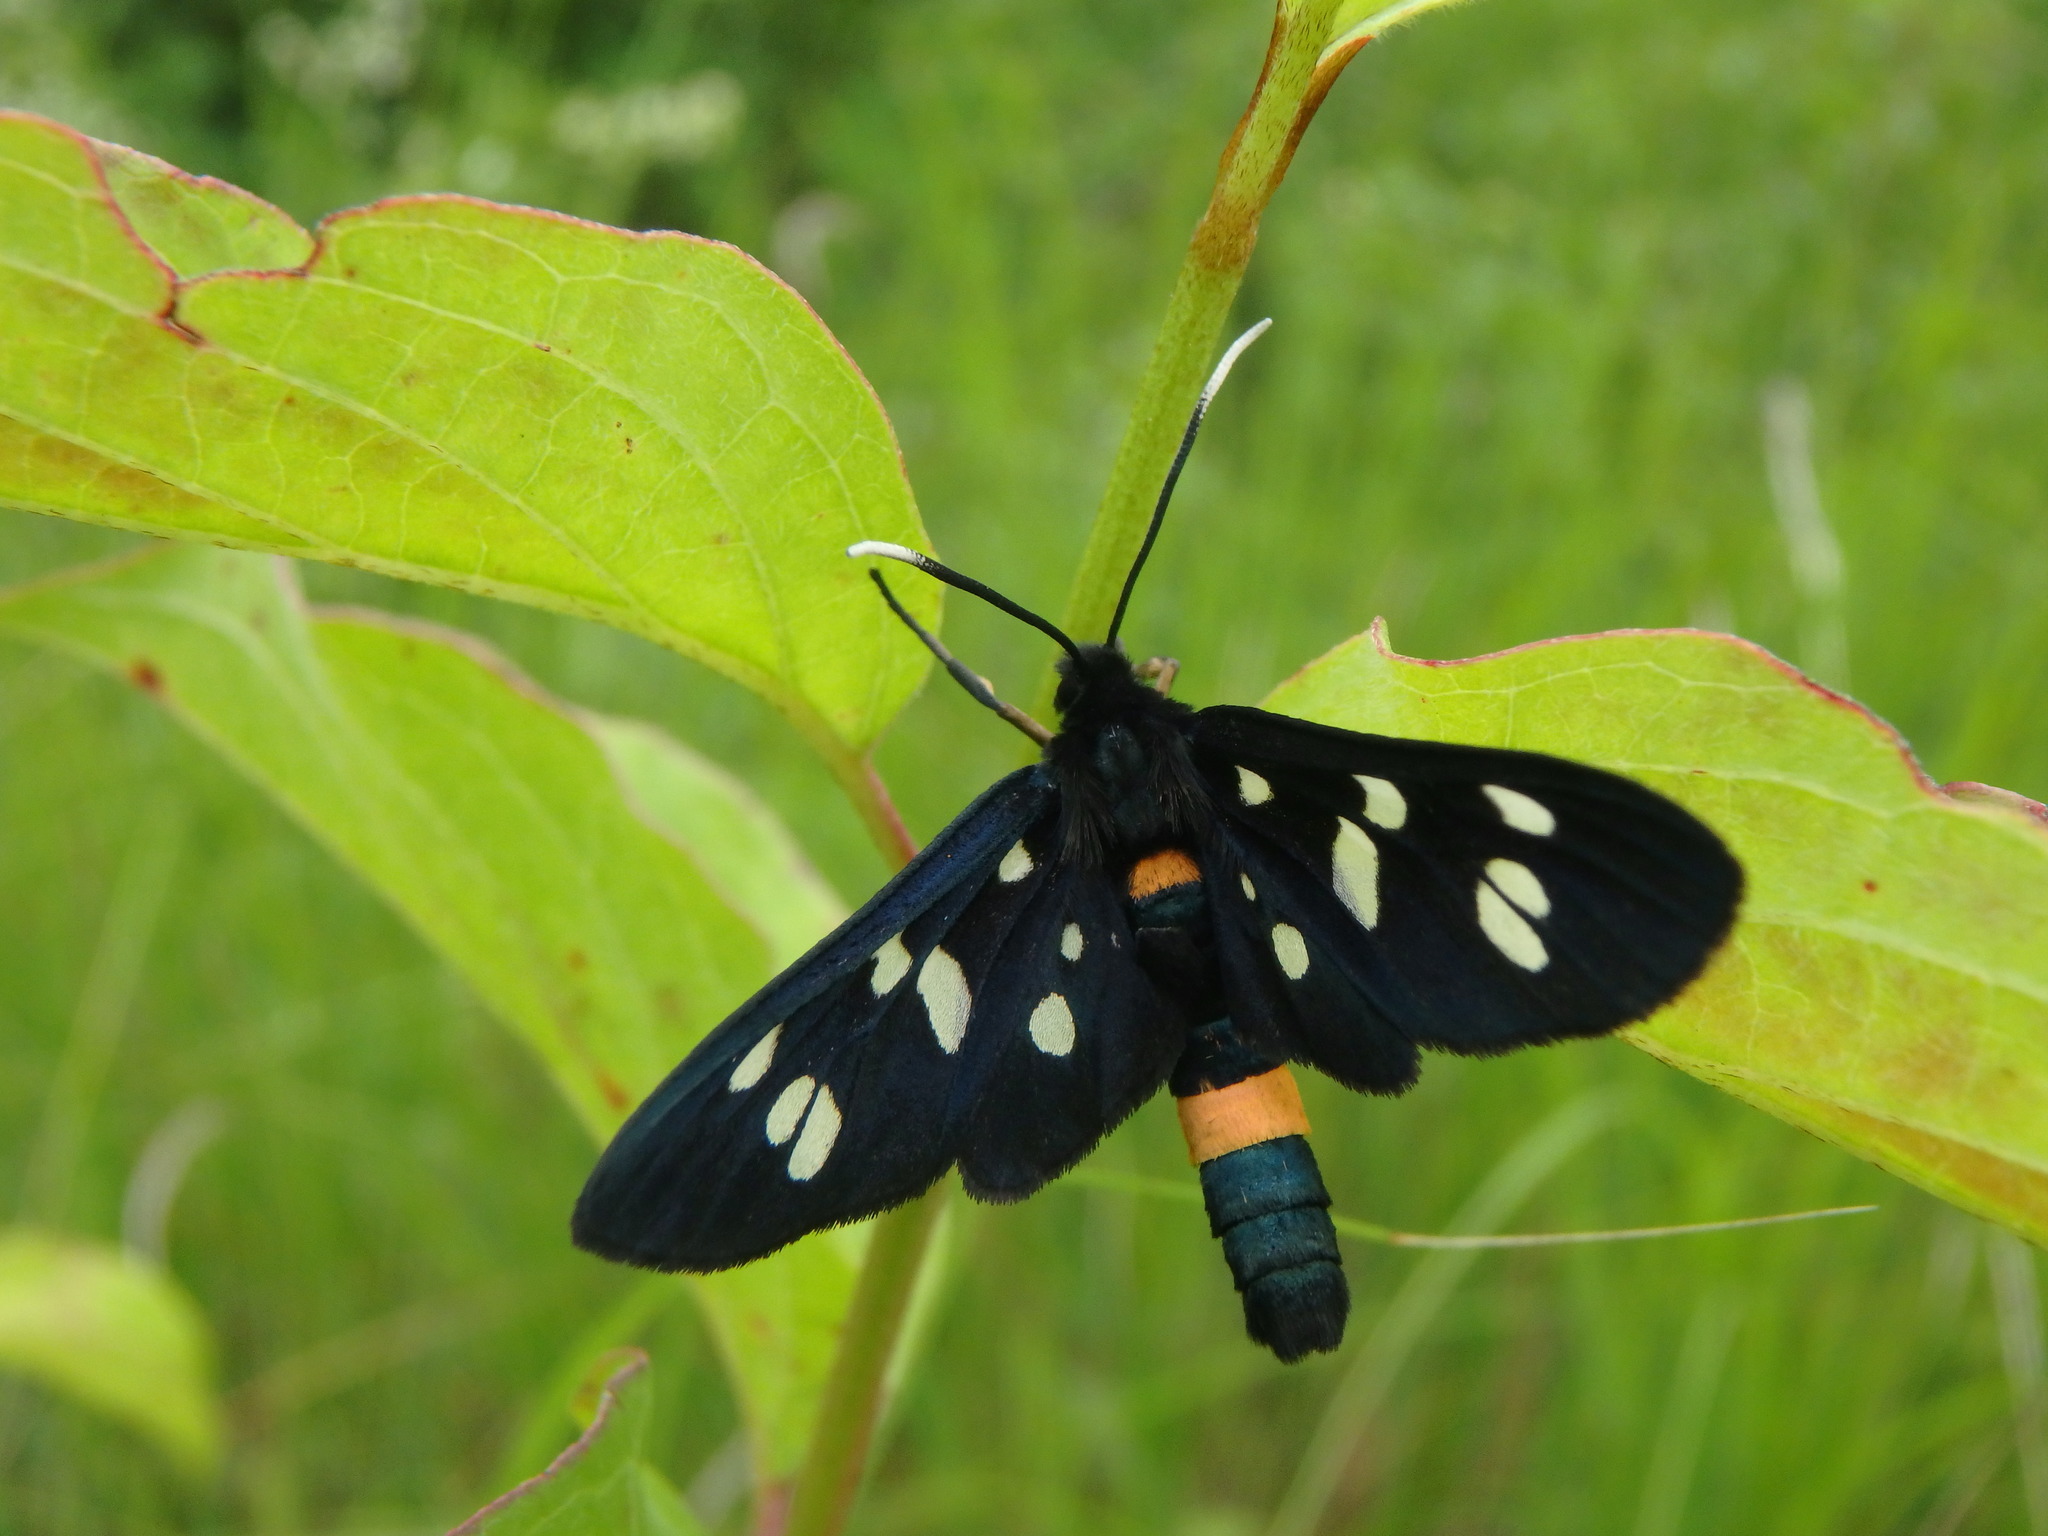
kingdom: Animalia
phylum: Arthropoda
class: Insecta
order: Lepidoptera
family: Erebidae
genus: Amata
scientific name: Amata phegea
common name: Nine-spotted
